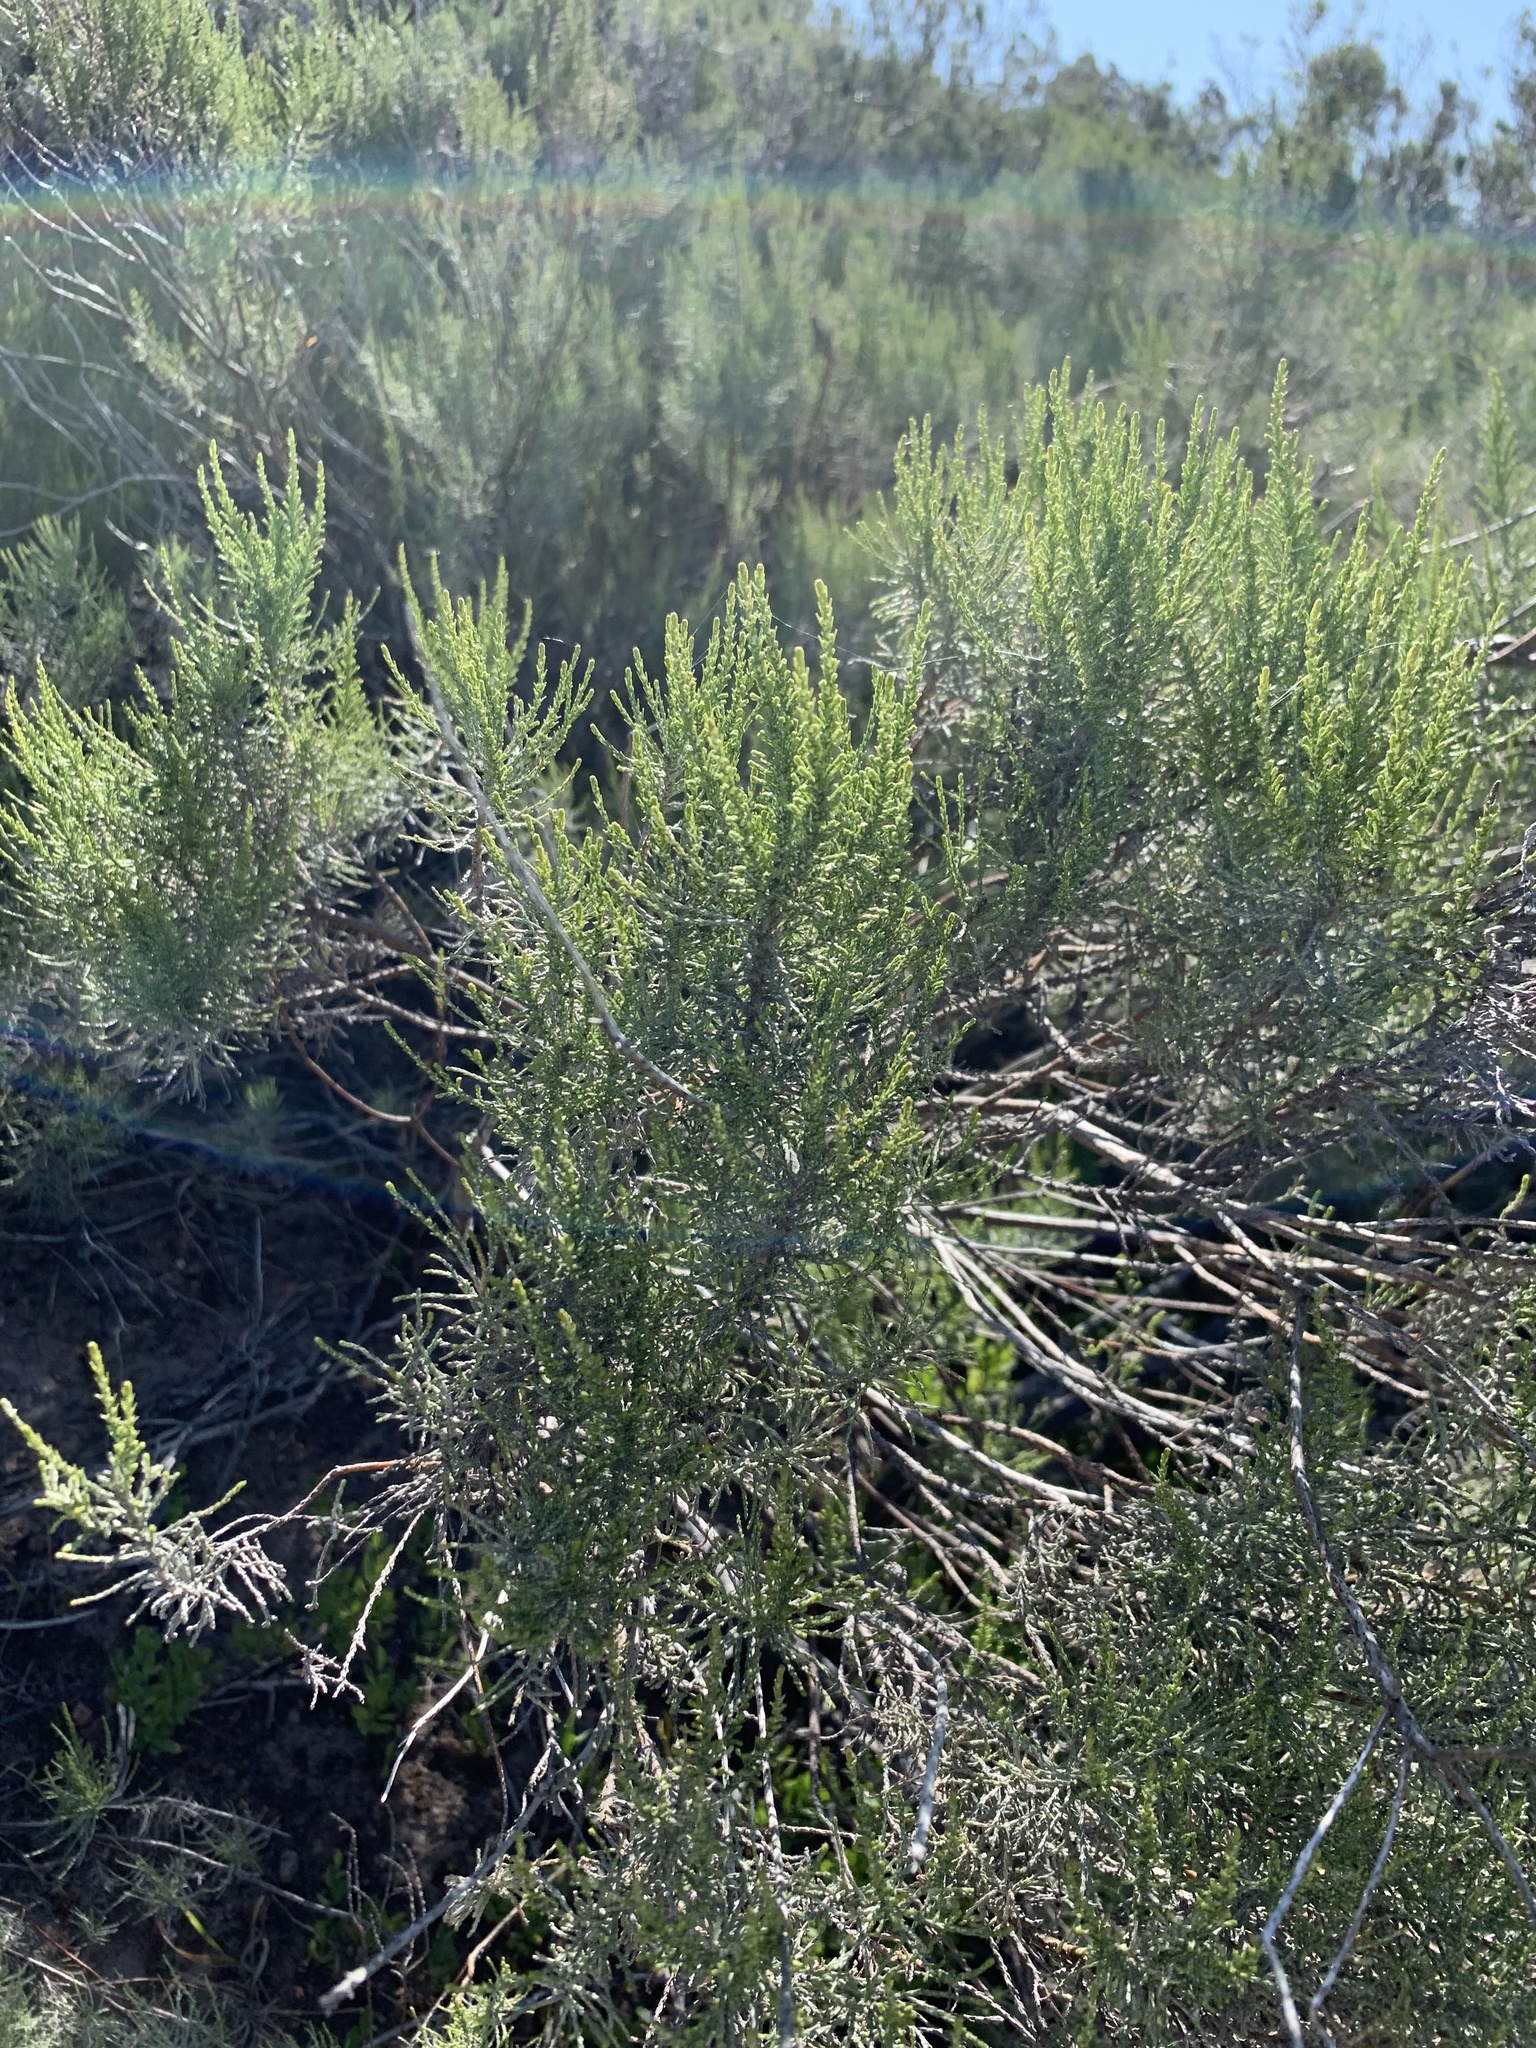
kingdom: Plantae
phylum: Tracheophyta
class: Magnoliopsida
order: Asterales
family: Asteraceae
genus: Dicerothamnus
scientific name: Dicerothamnus rhinocerotis
